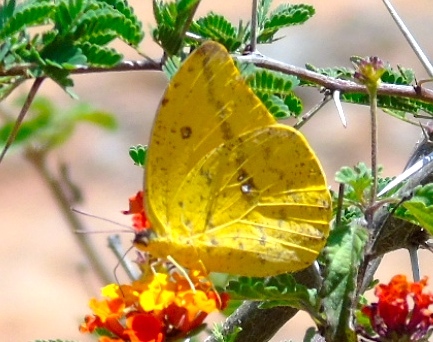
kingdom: Animalia
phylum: Arthropoda
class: Insecta
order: Lepidoptera
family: Pieridae
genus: Phoebis
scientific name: Phoebis agarithe
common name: Large orange sulphur
